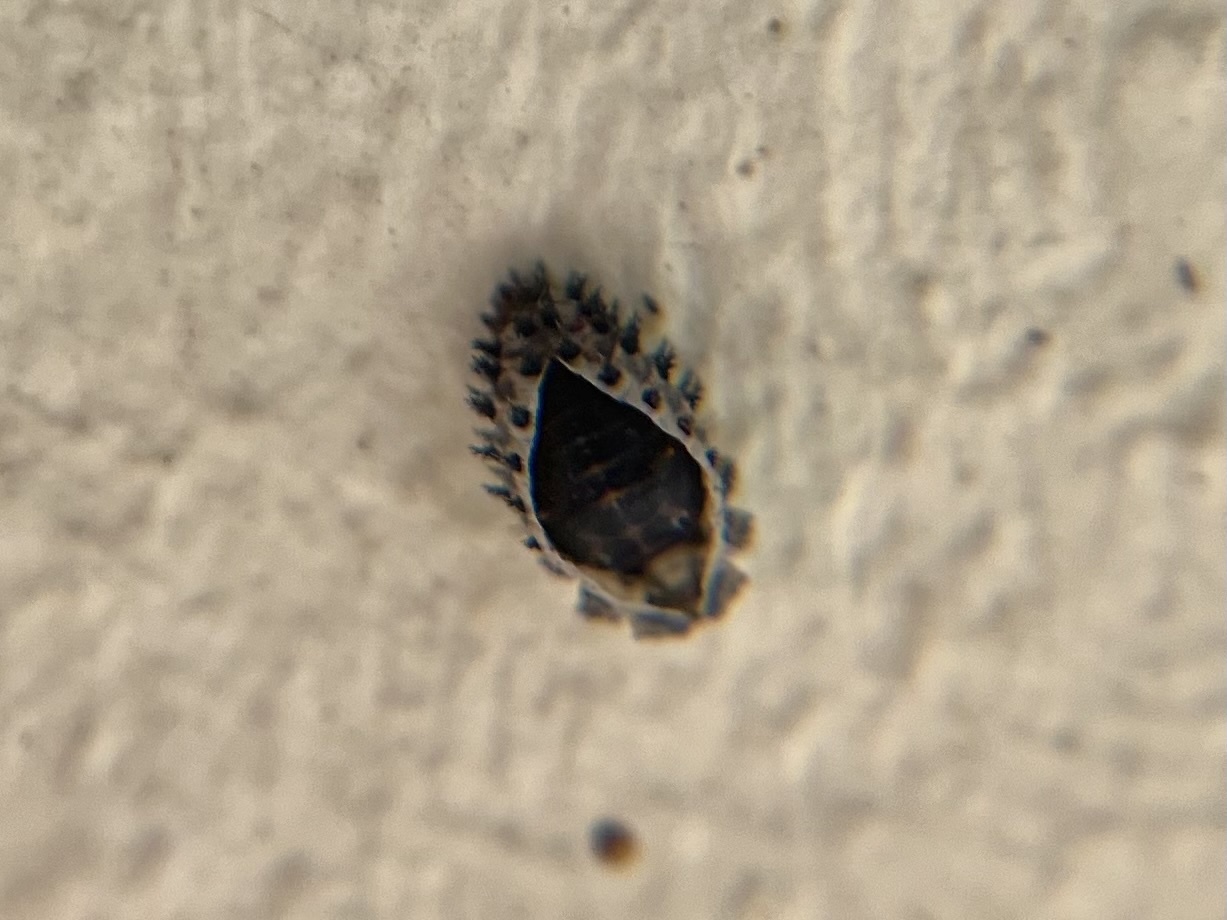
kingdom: Animalia
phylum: Arthropoda
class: Insecta
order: Coleoptera
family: Coccinellidae
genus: Brumus
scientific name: Brumus quadripustulatus
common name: Ladybird beetle
